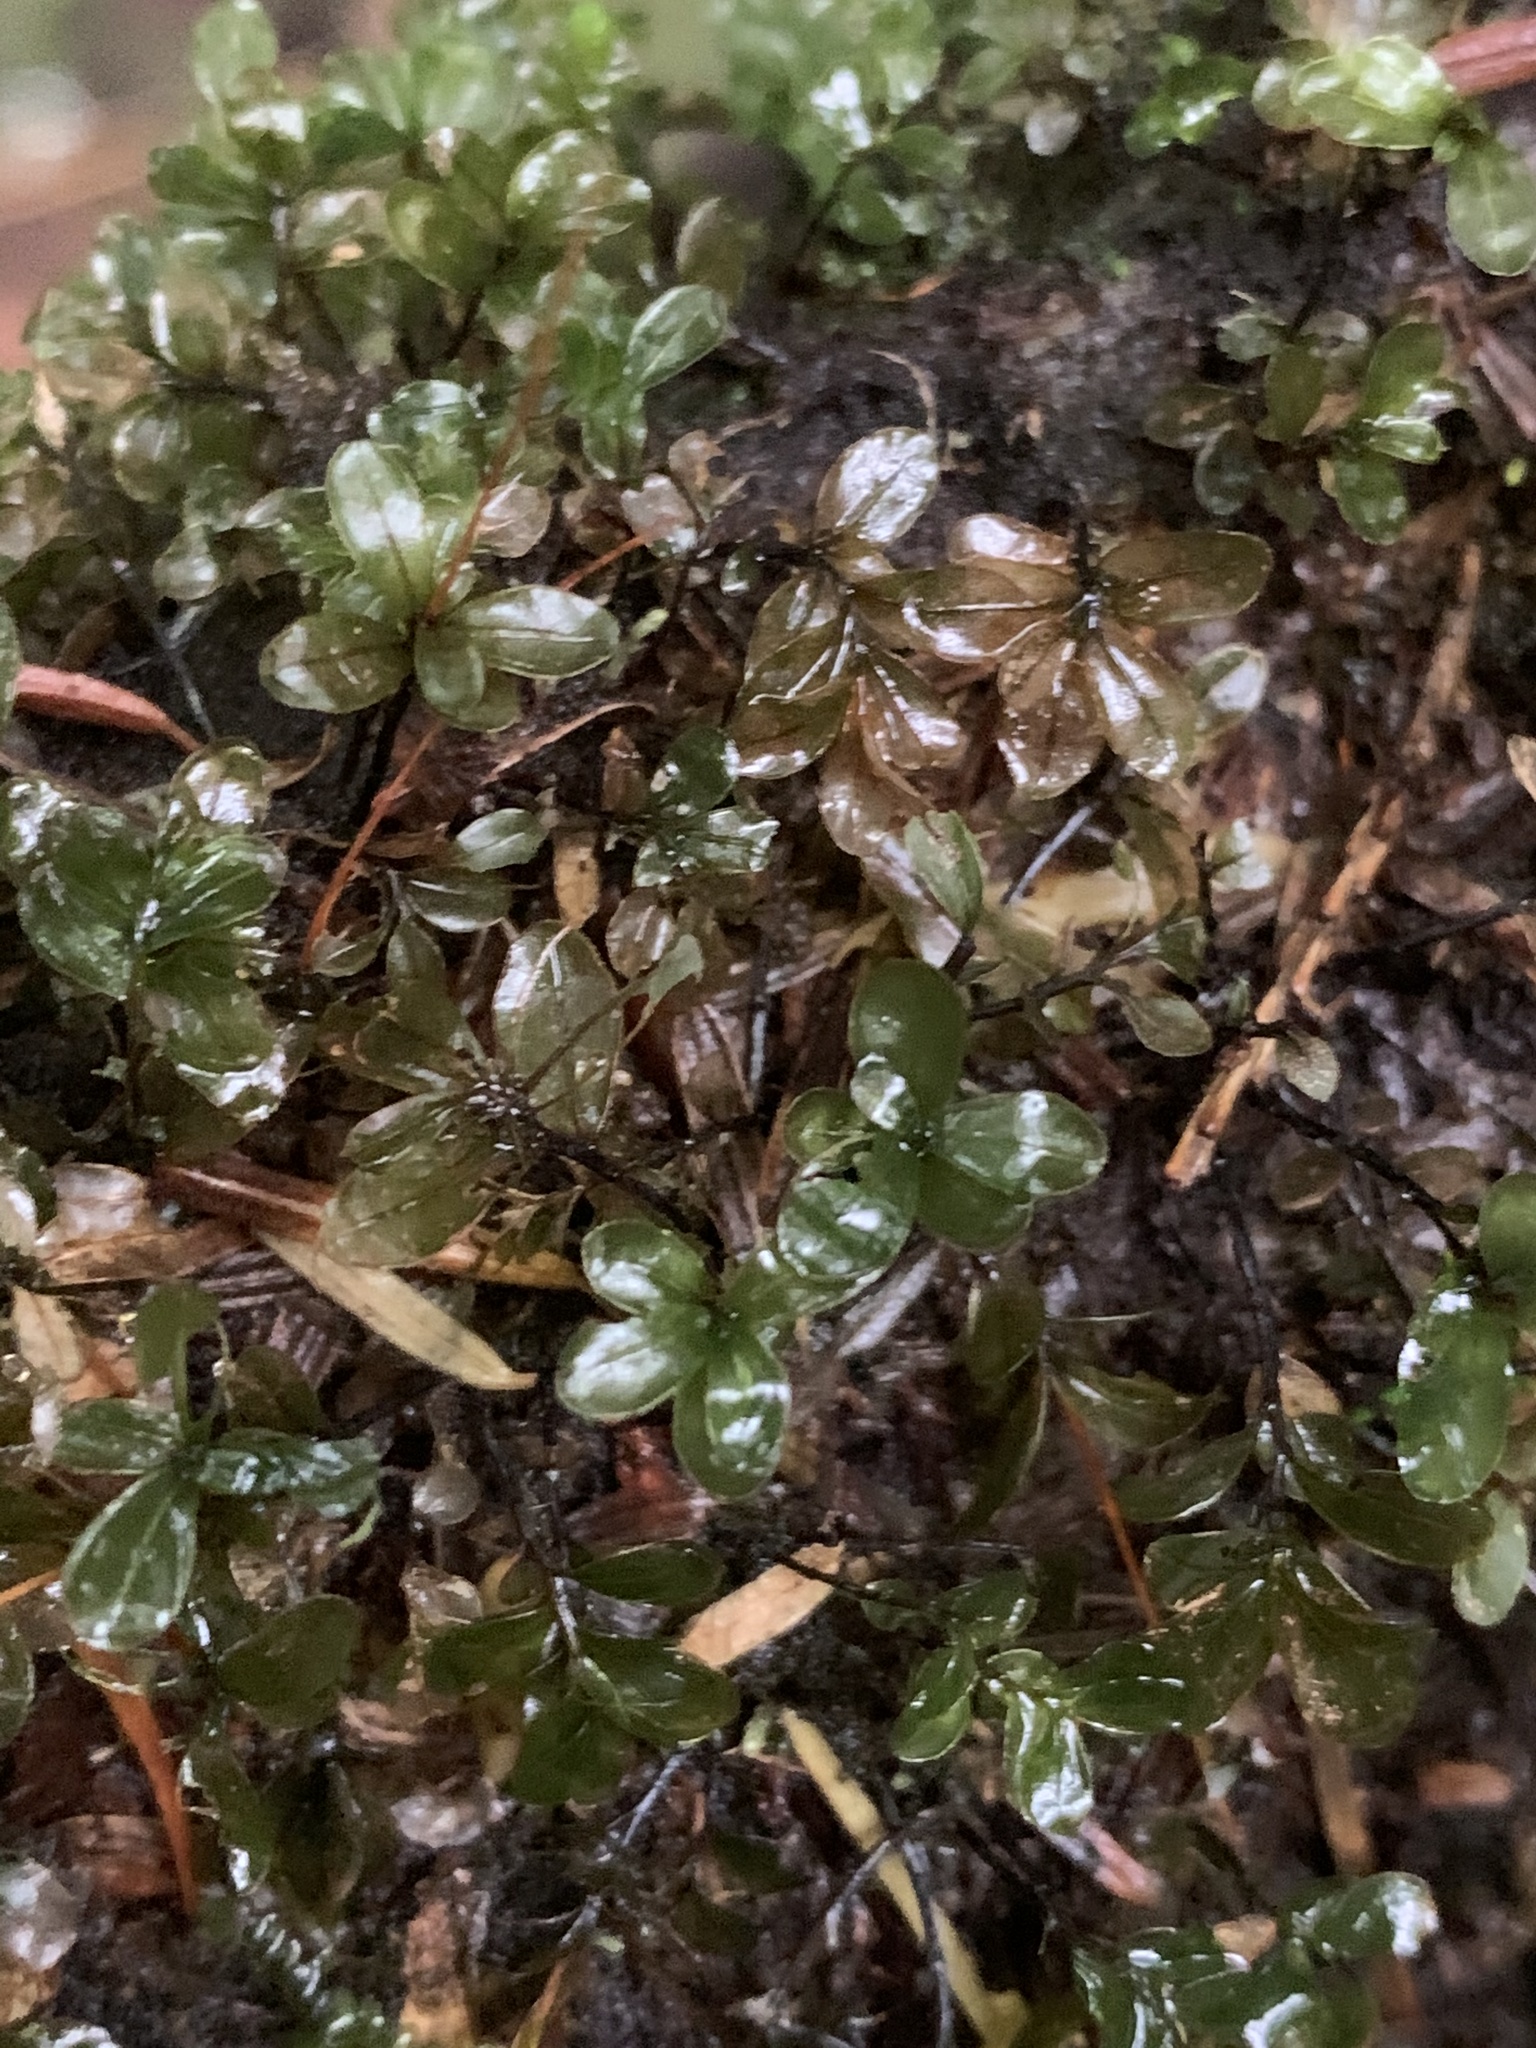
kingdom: Plantae
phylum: Bryophyta
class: Bryopsida
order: Bryales
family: Mniaceae
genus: Rhizomnium
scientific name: Rhizomnium glabrescens
